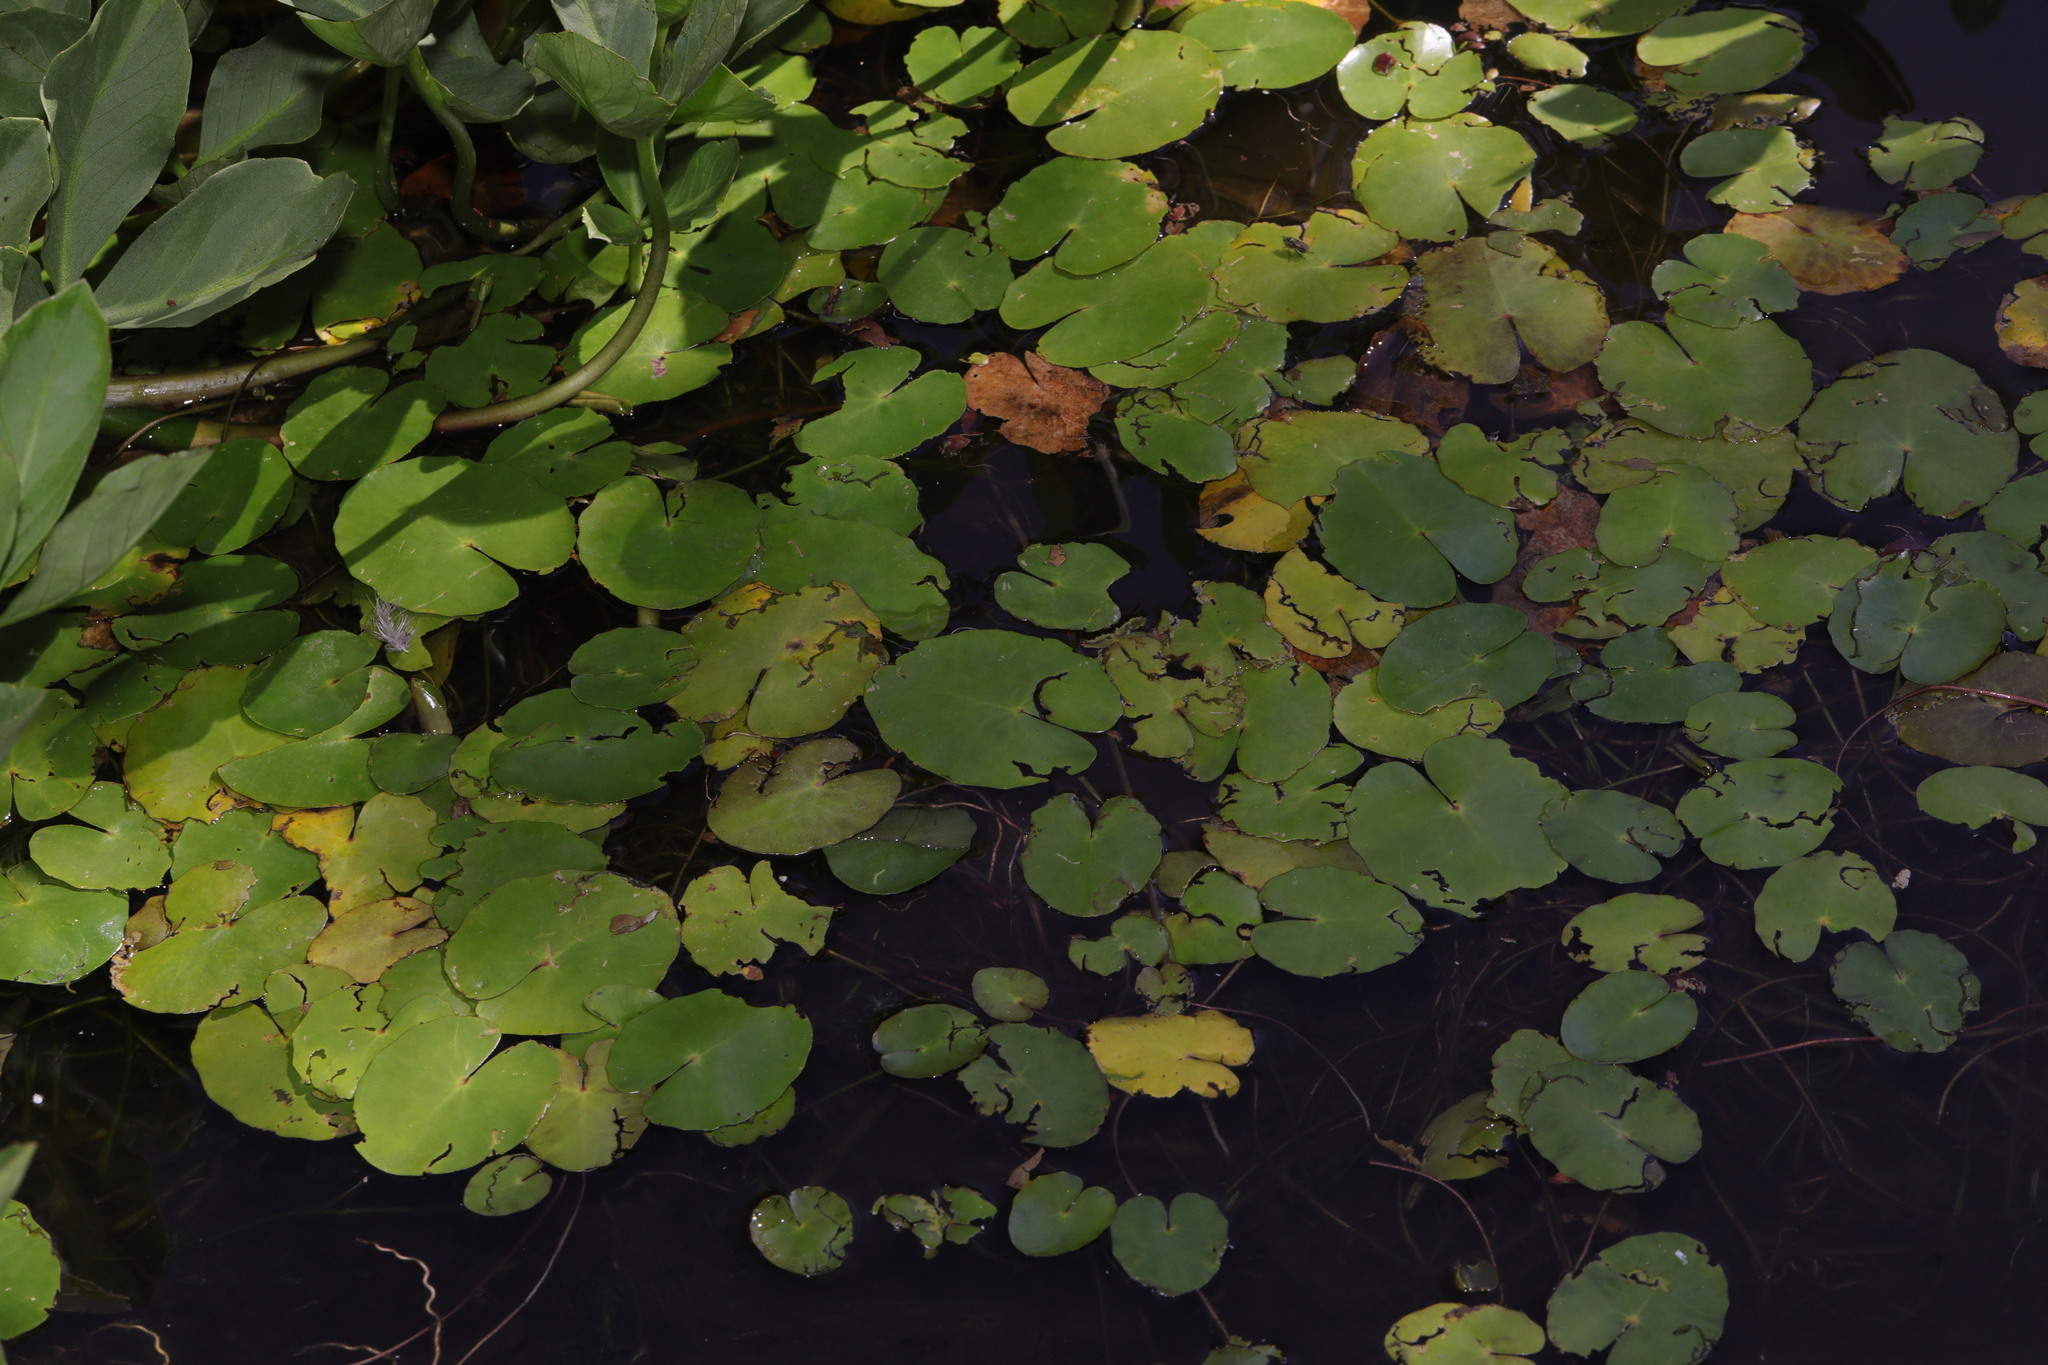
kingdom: Plantae
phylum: Tracheophyta
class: Magnoliopsida
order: Asterales
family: Menyanthaceae
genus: Nymphoides
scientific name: Nymphoides peltata
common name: Fringed water-lily
